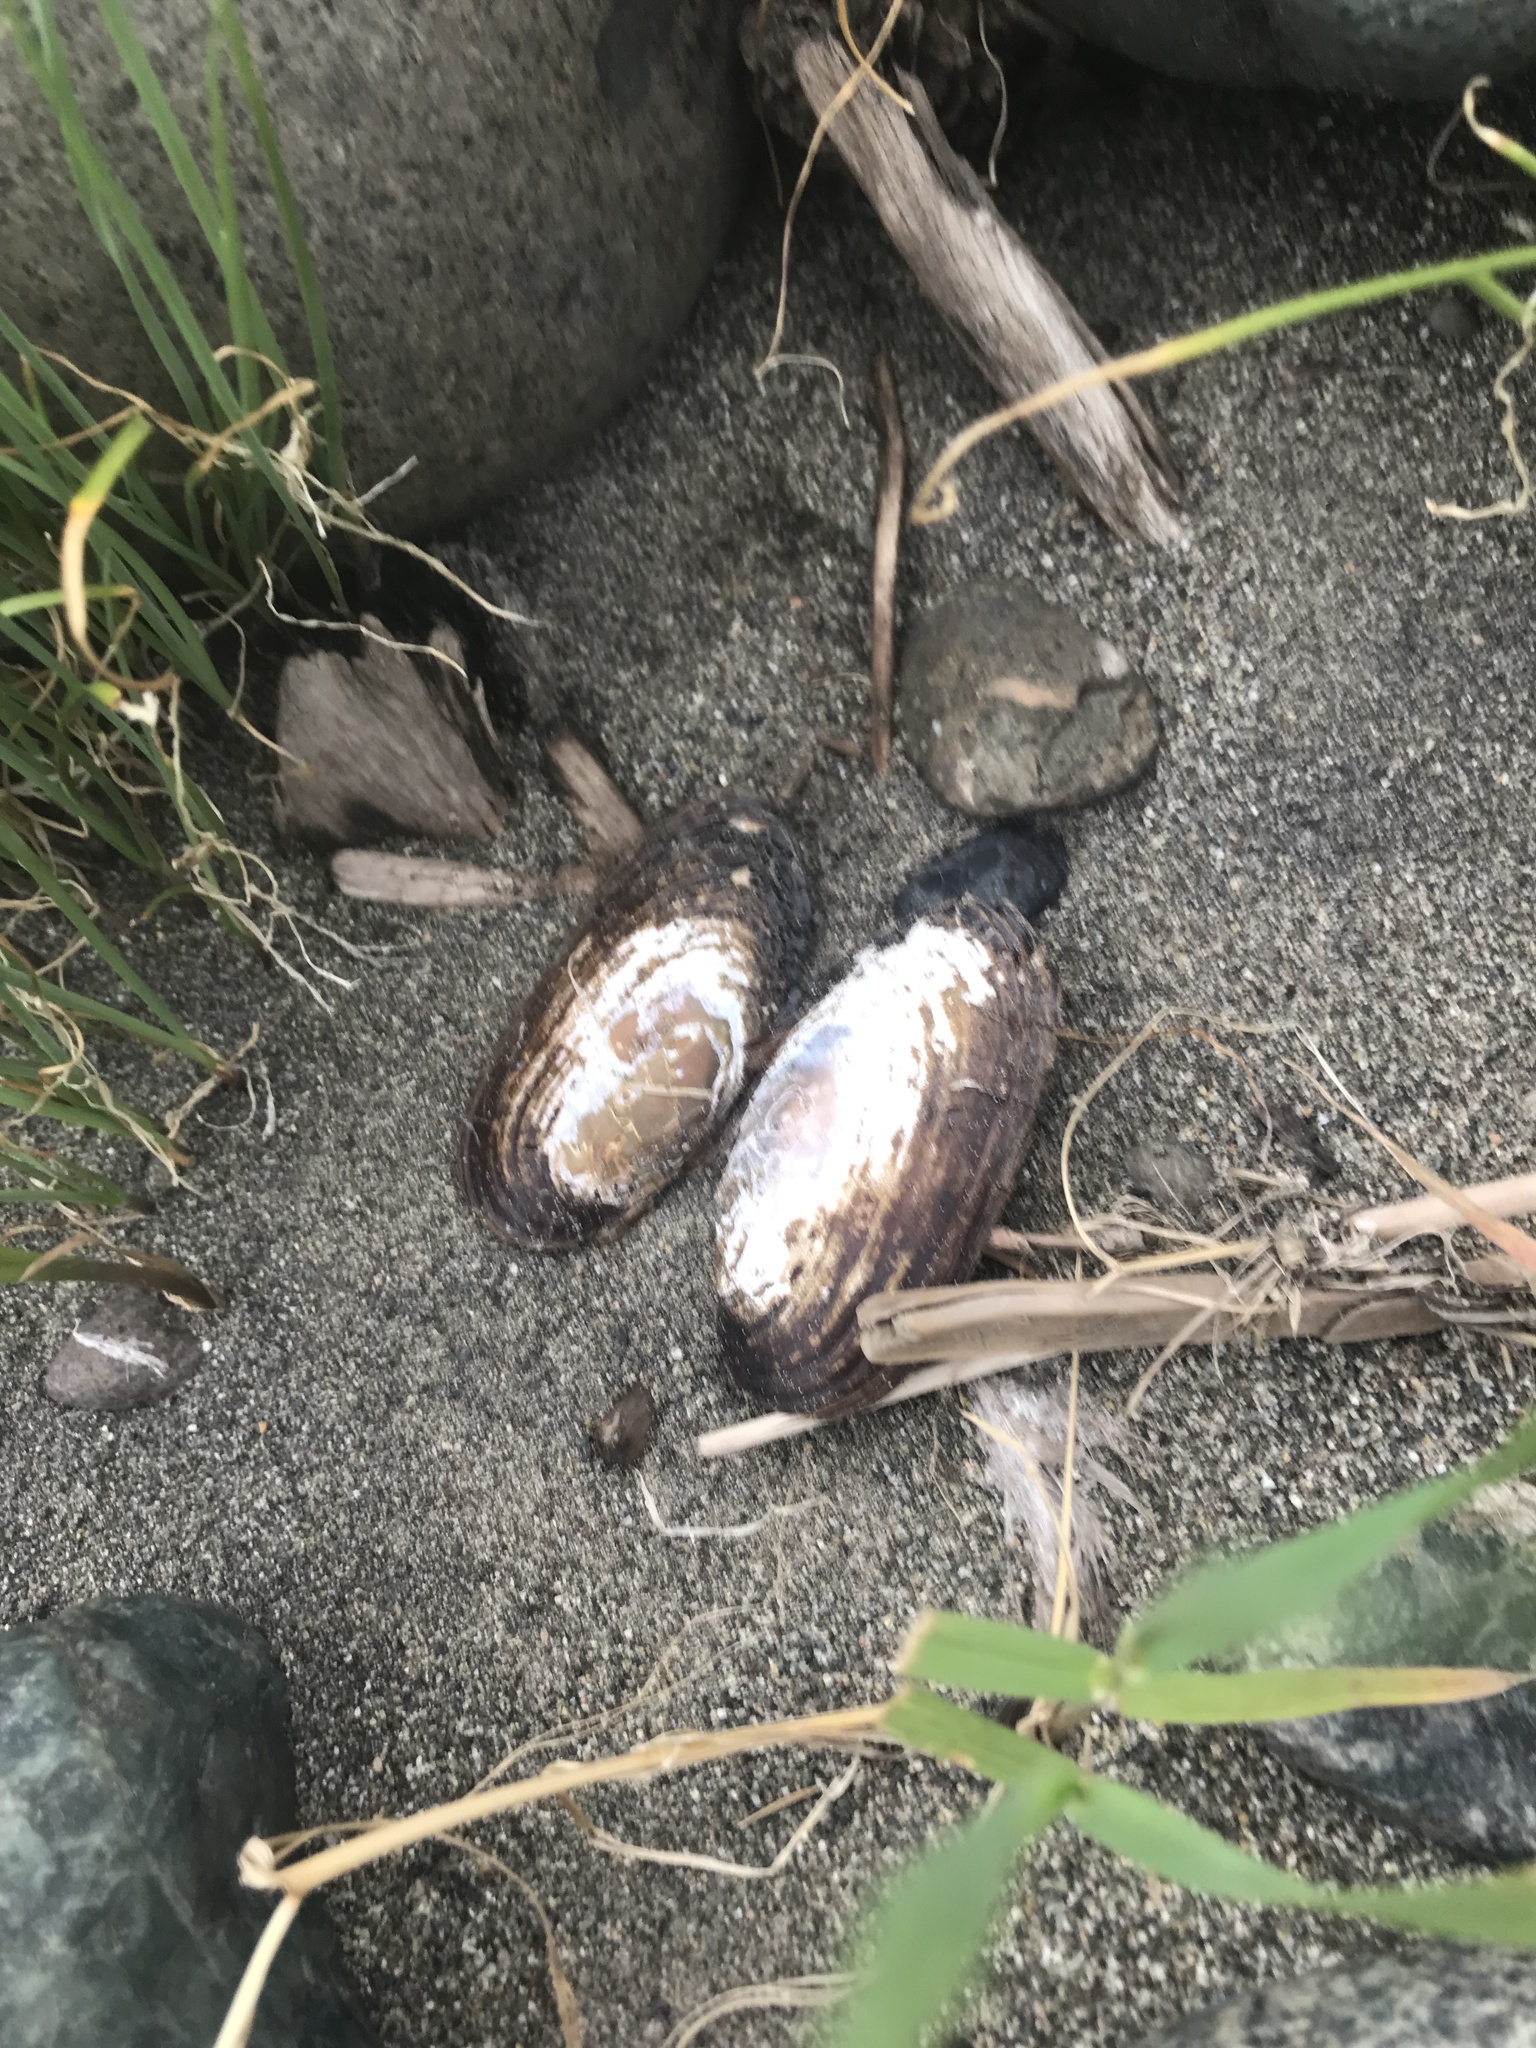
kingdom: Animalia
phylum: Mollusca
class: Bivalvia
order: Unionida
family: Margaritiferidae
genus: Margaritifera
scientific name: Margaritifera falcata
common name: Western pearlshell
